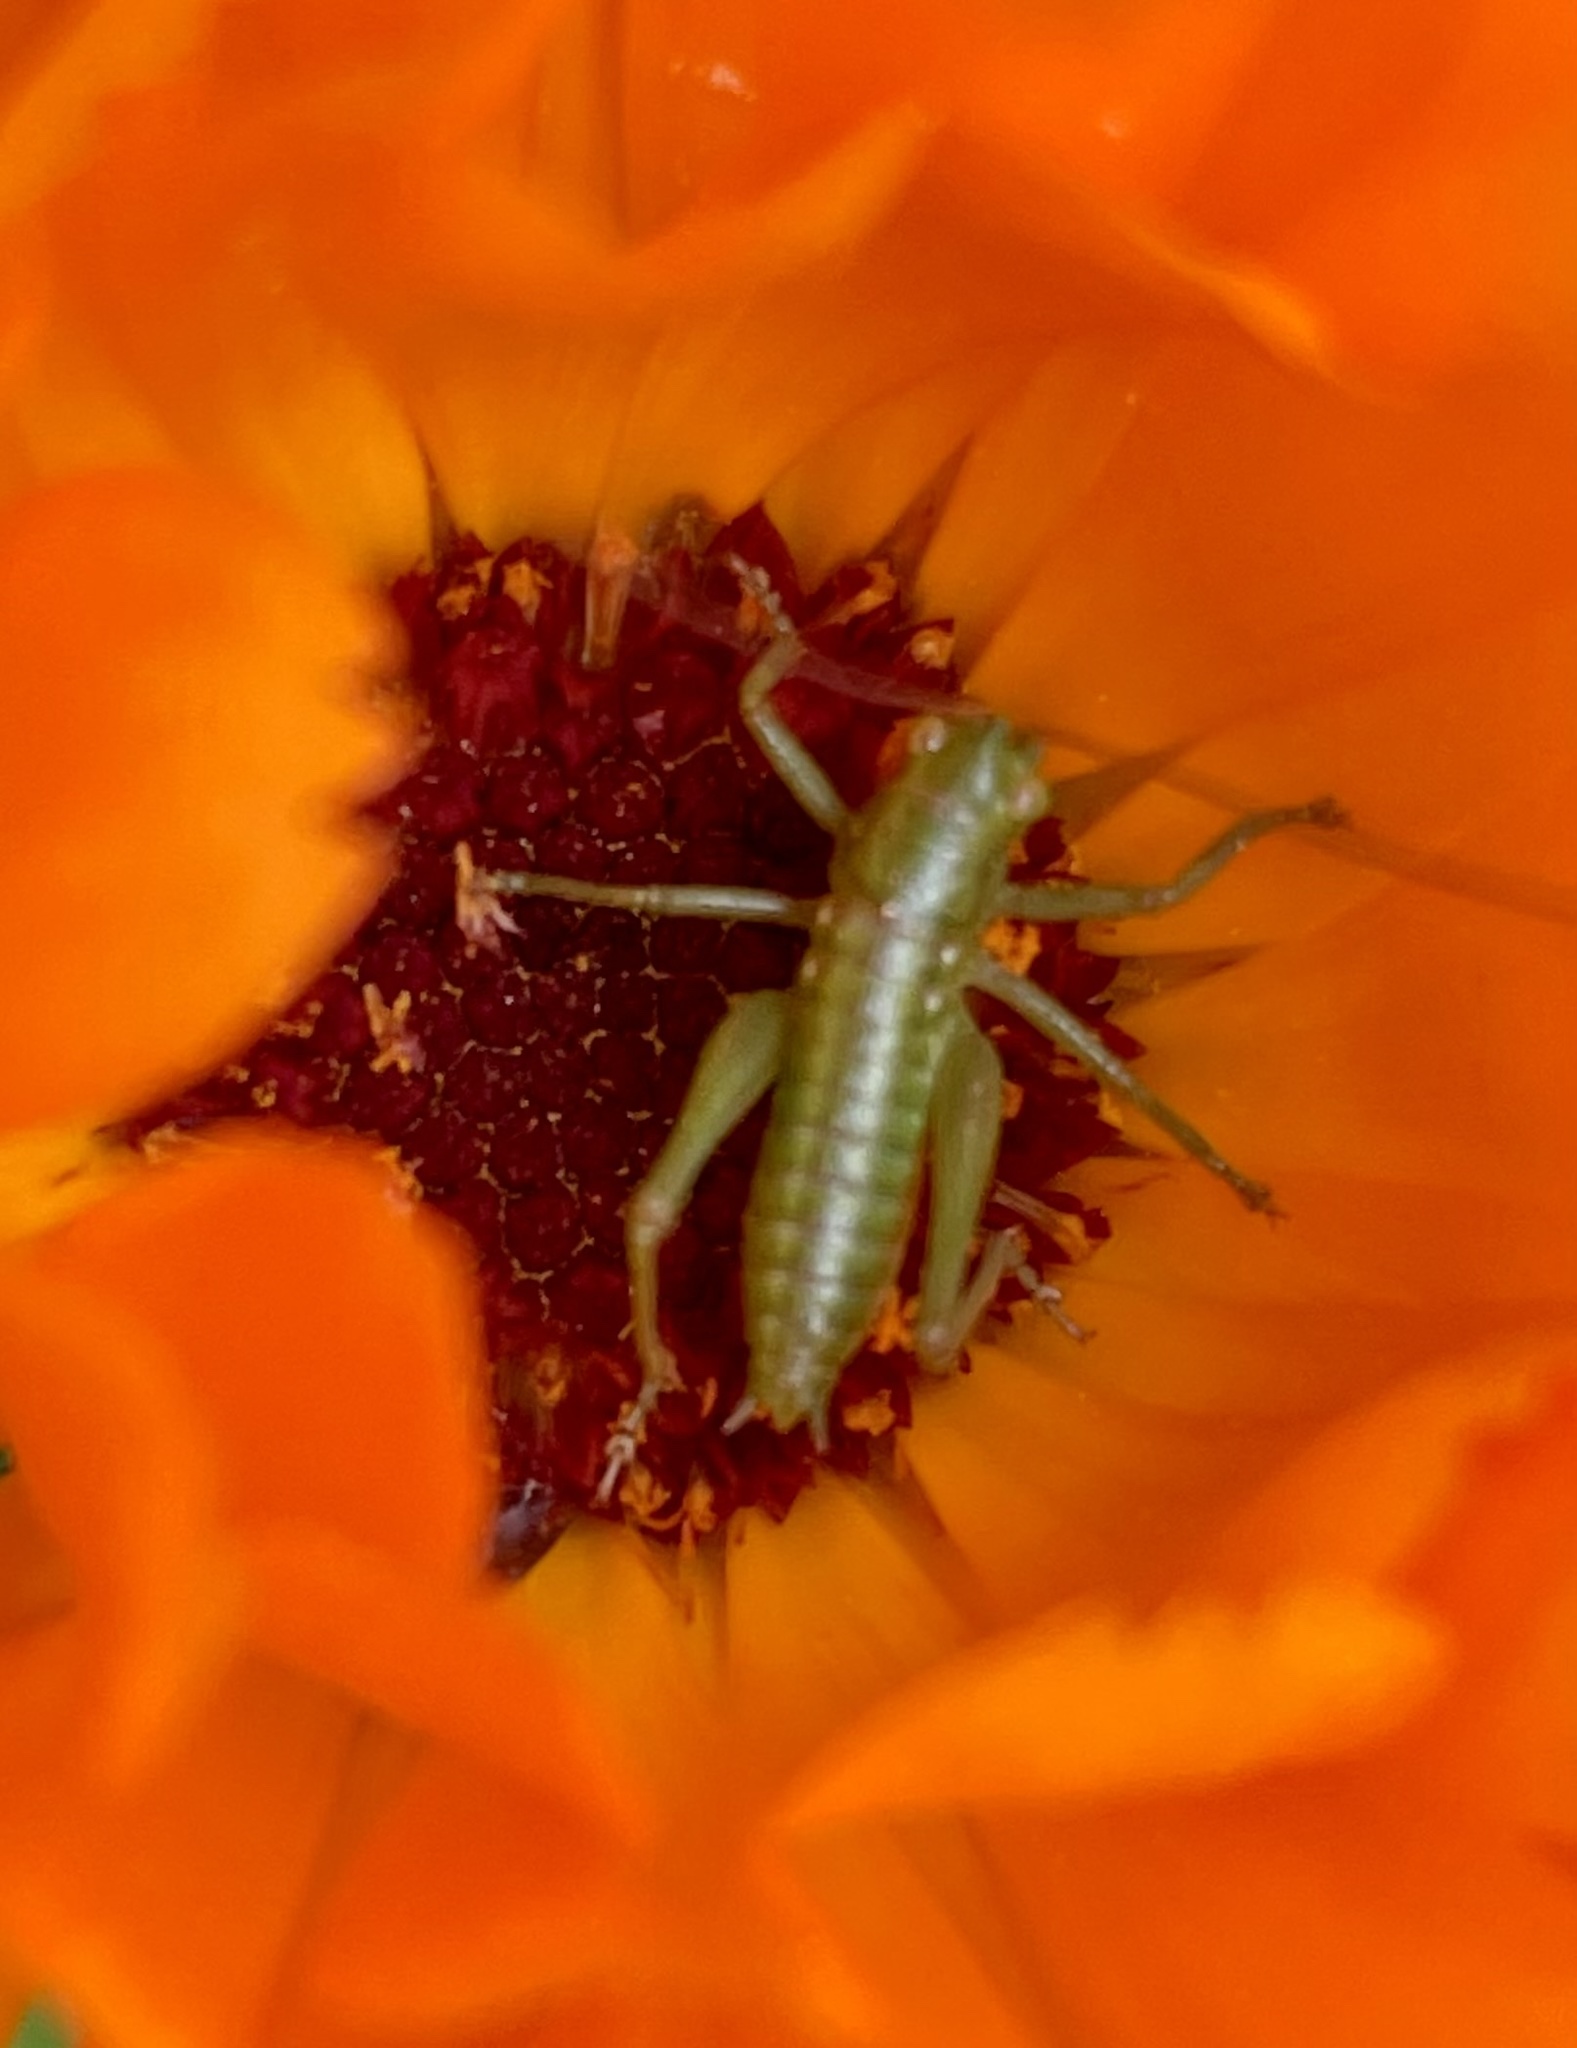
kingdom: Animalia
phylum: Arthropoda
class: Insecta
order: Orthoptera
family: Tettigoniidae
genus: Tettigonia
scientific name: Tettigonia viridissima
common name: Great green bush-cricket
